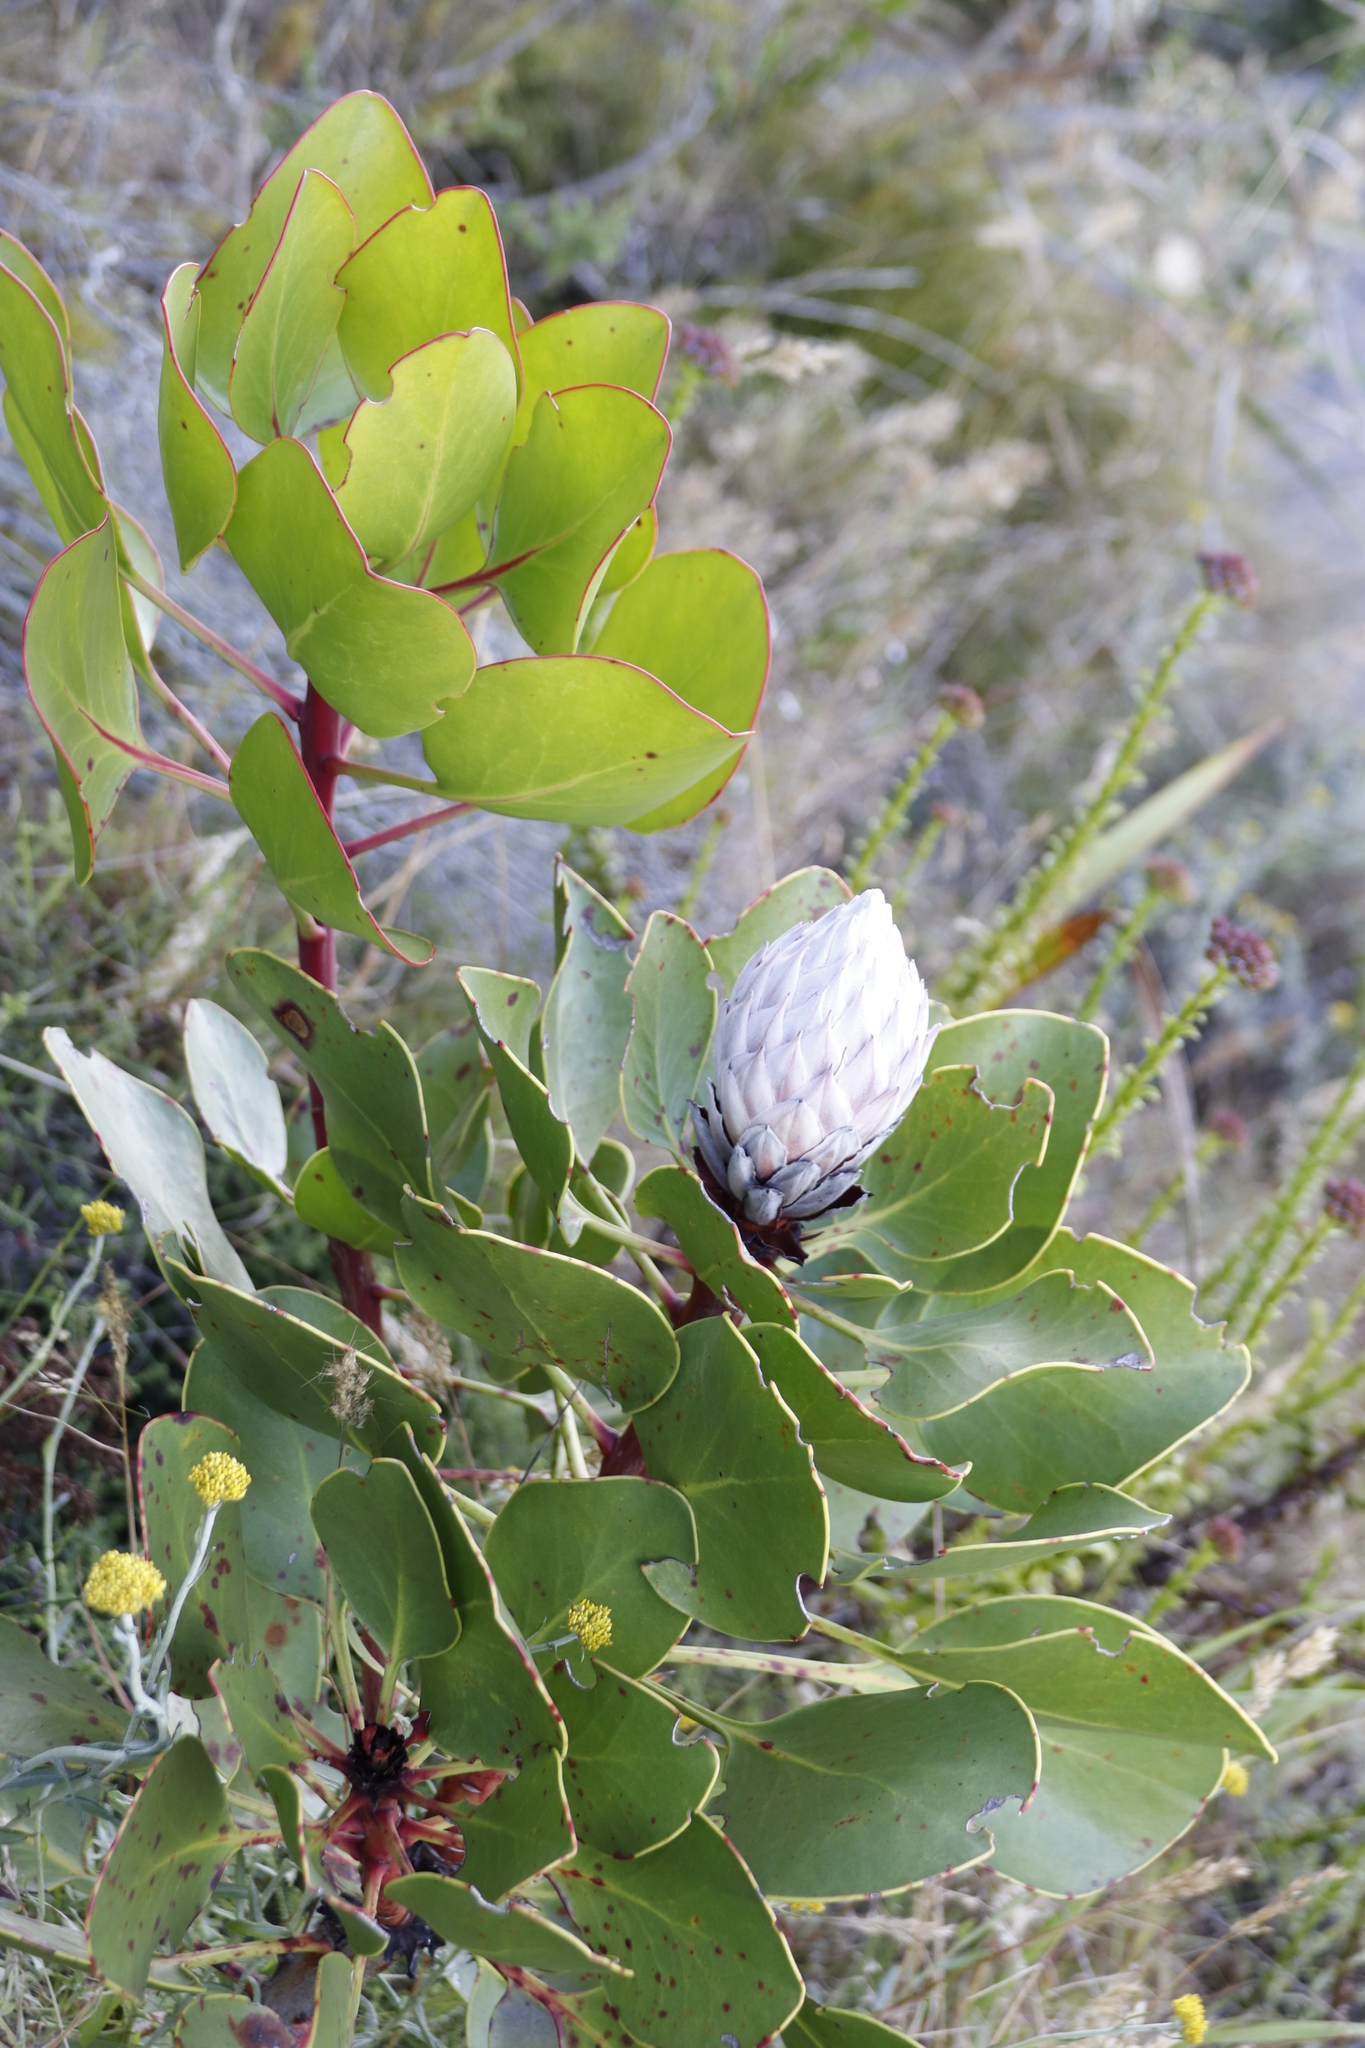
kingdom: Plantae
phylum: Tracheophyta
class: Magnoliopsida
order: Proteales
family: Proteaceae
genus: Protea
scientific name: Protea cynaroides
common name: King protea
